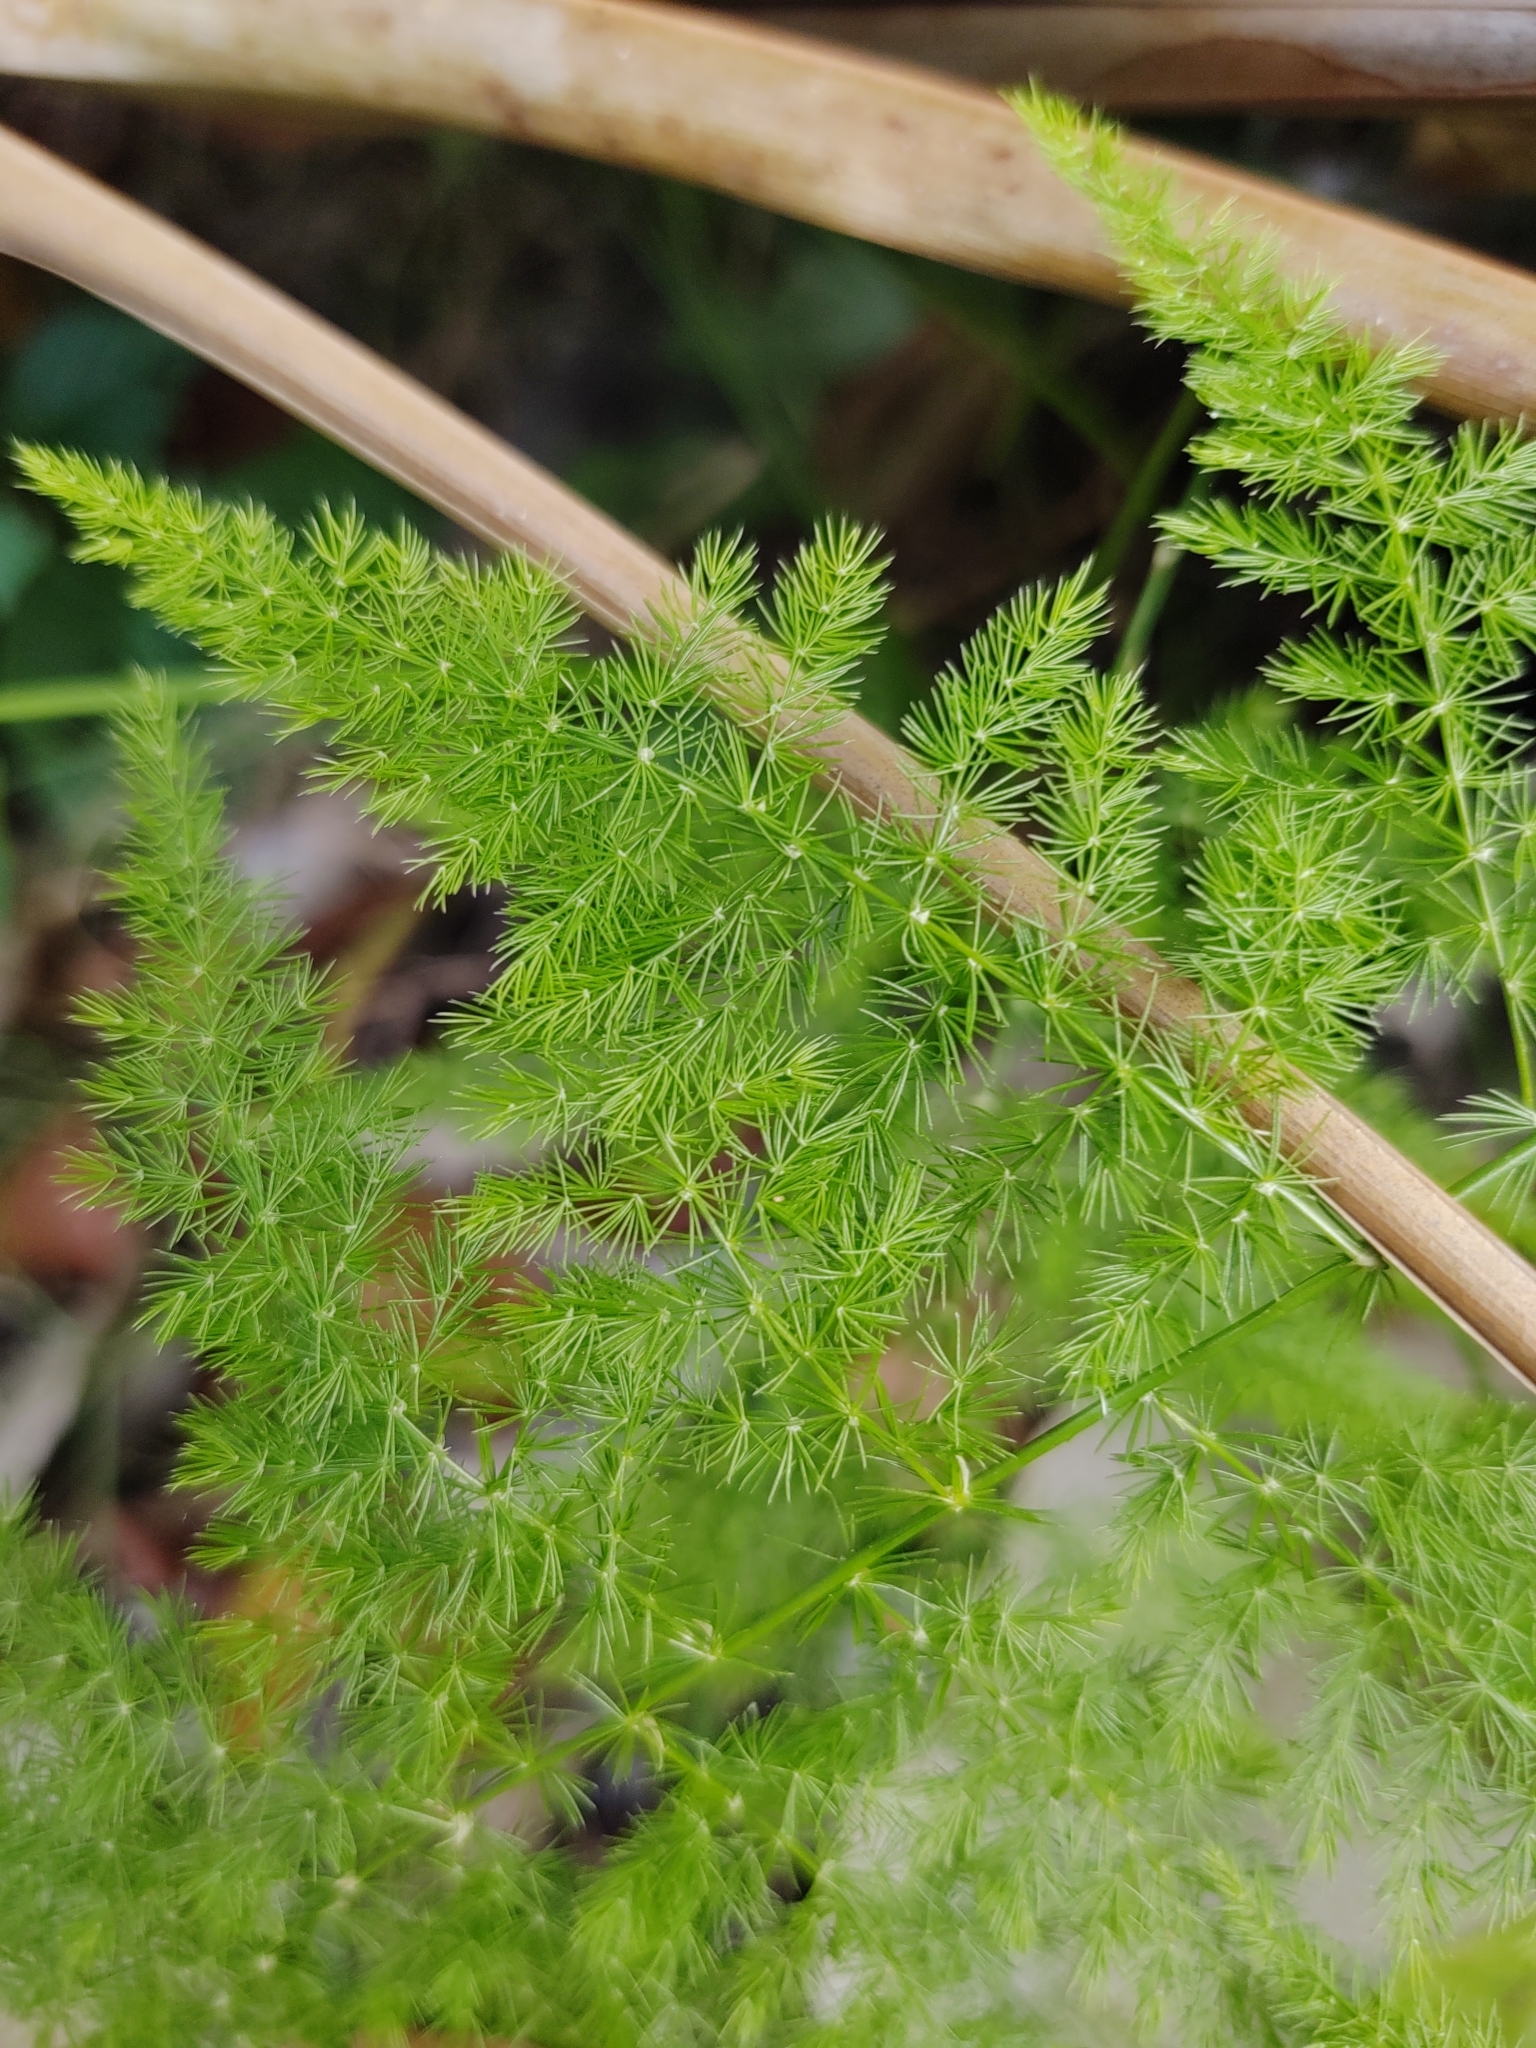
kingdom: Plantae
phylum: Tracheophyta
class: Liliopsida
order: Asparagales
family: Asparagaceae
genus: Asparagus
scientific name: Asparagus setaceus
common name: Common asparagus fern
